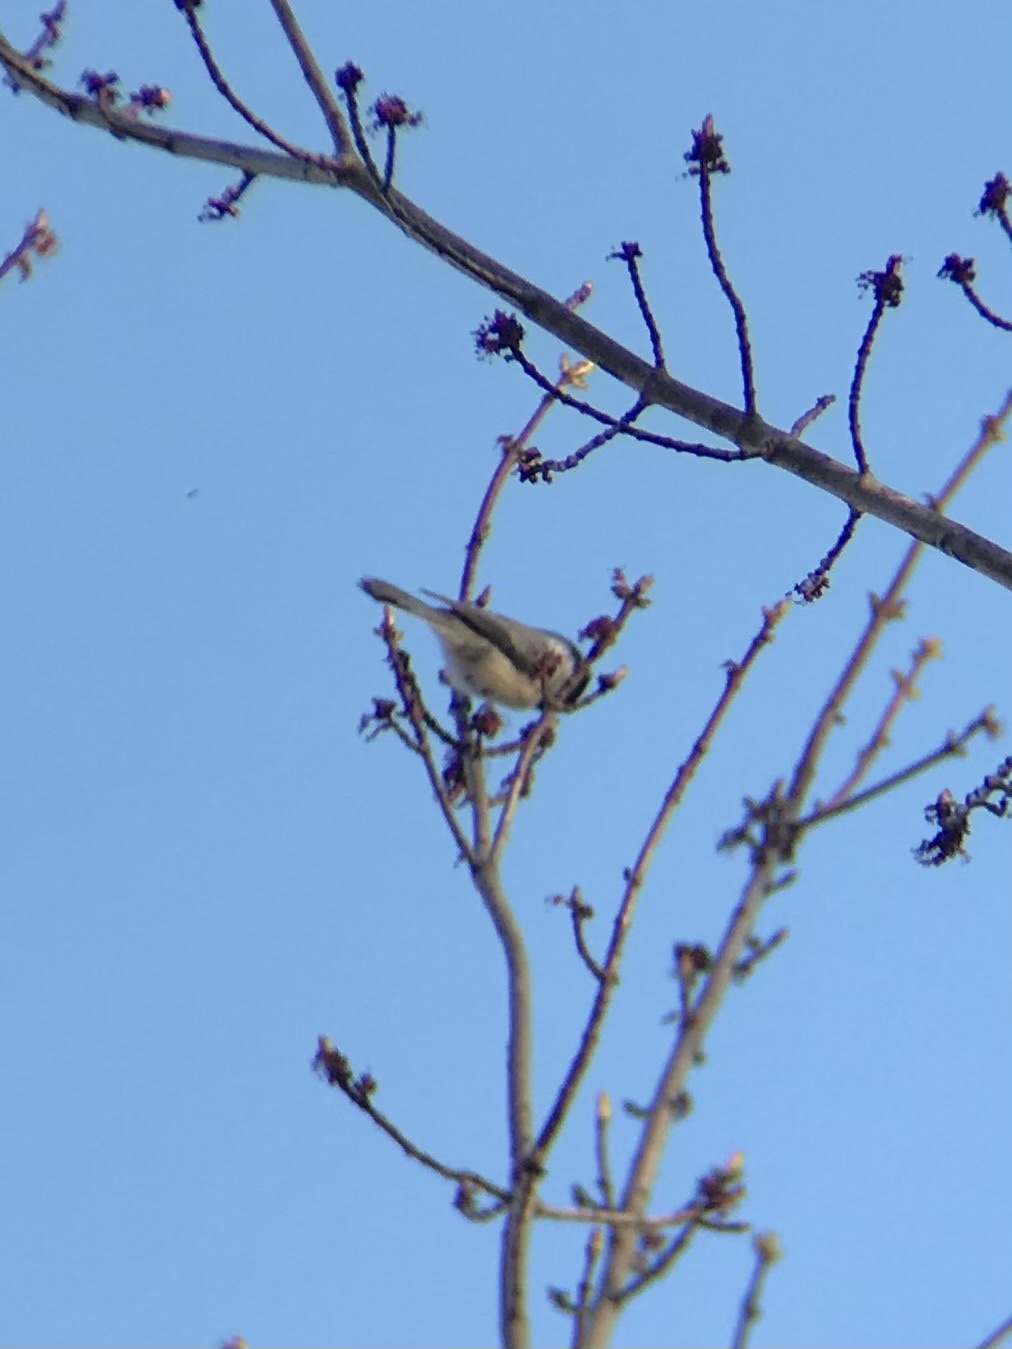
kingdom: Animalia
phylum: Chordata
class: Aves
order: Passeriformes
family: Paridae
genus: Poecile
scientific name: Poecile atricapillus
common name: Black-capped chickadee
